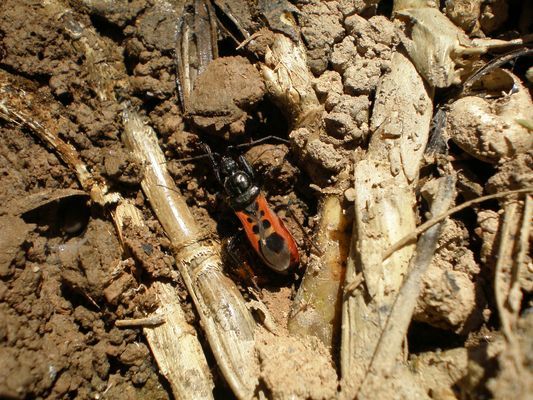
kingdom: Animalia
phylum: Arthropoda
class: Insecta
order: Hemiptera
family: Reduviidae
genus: Peirates
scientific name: Peirates stridulus
